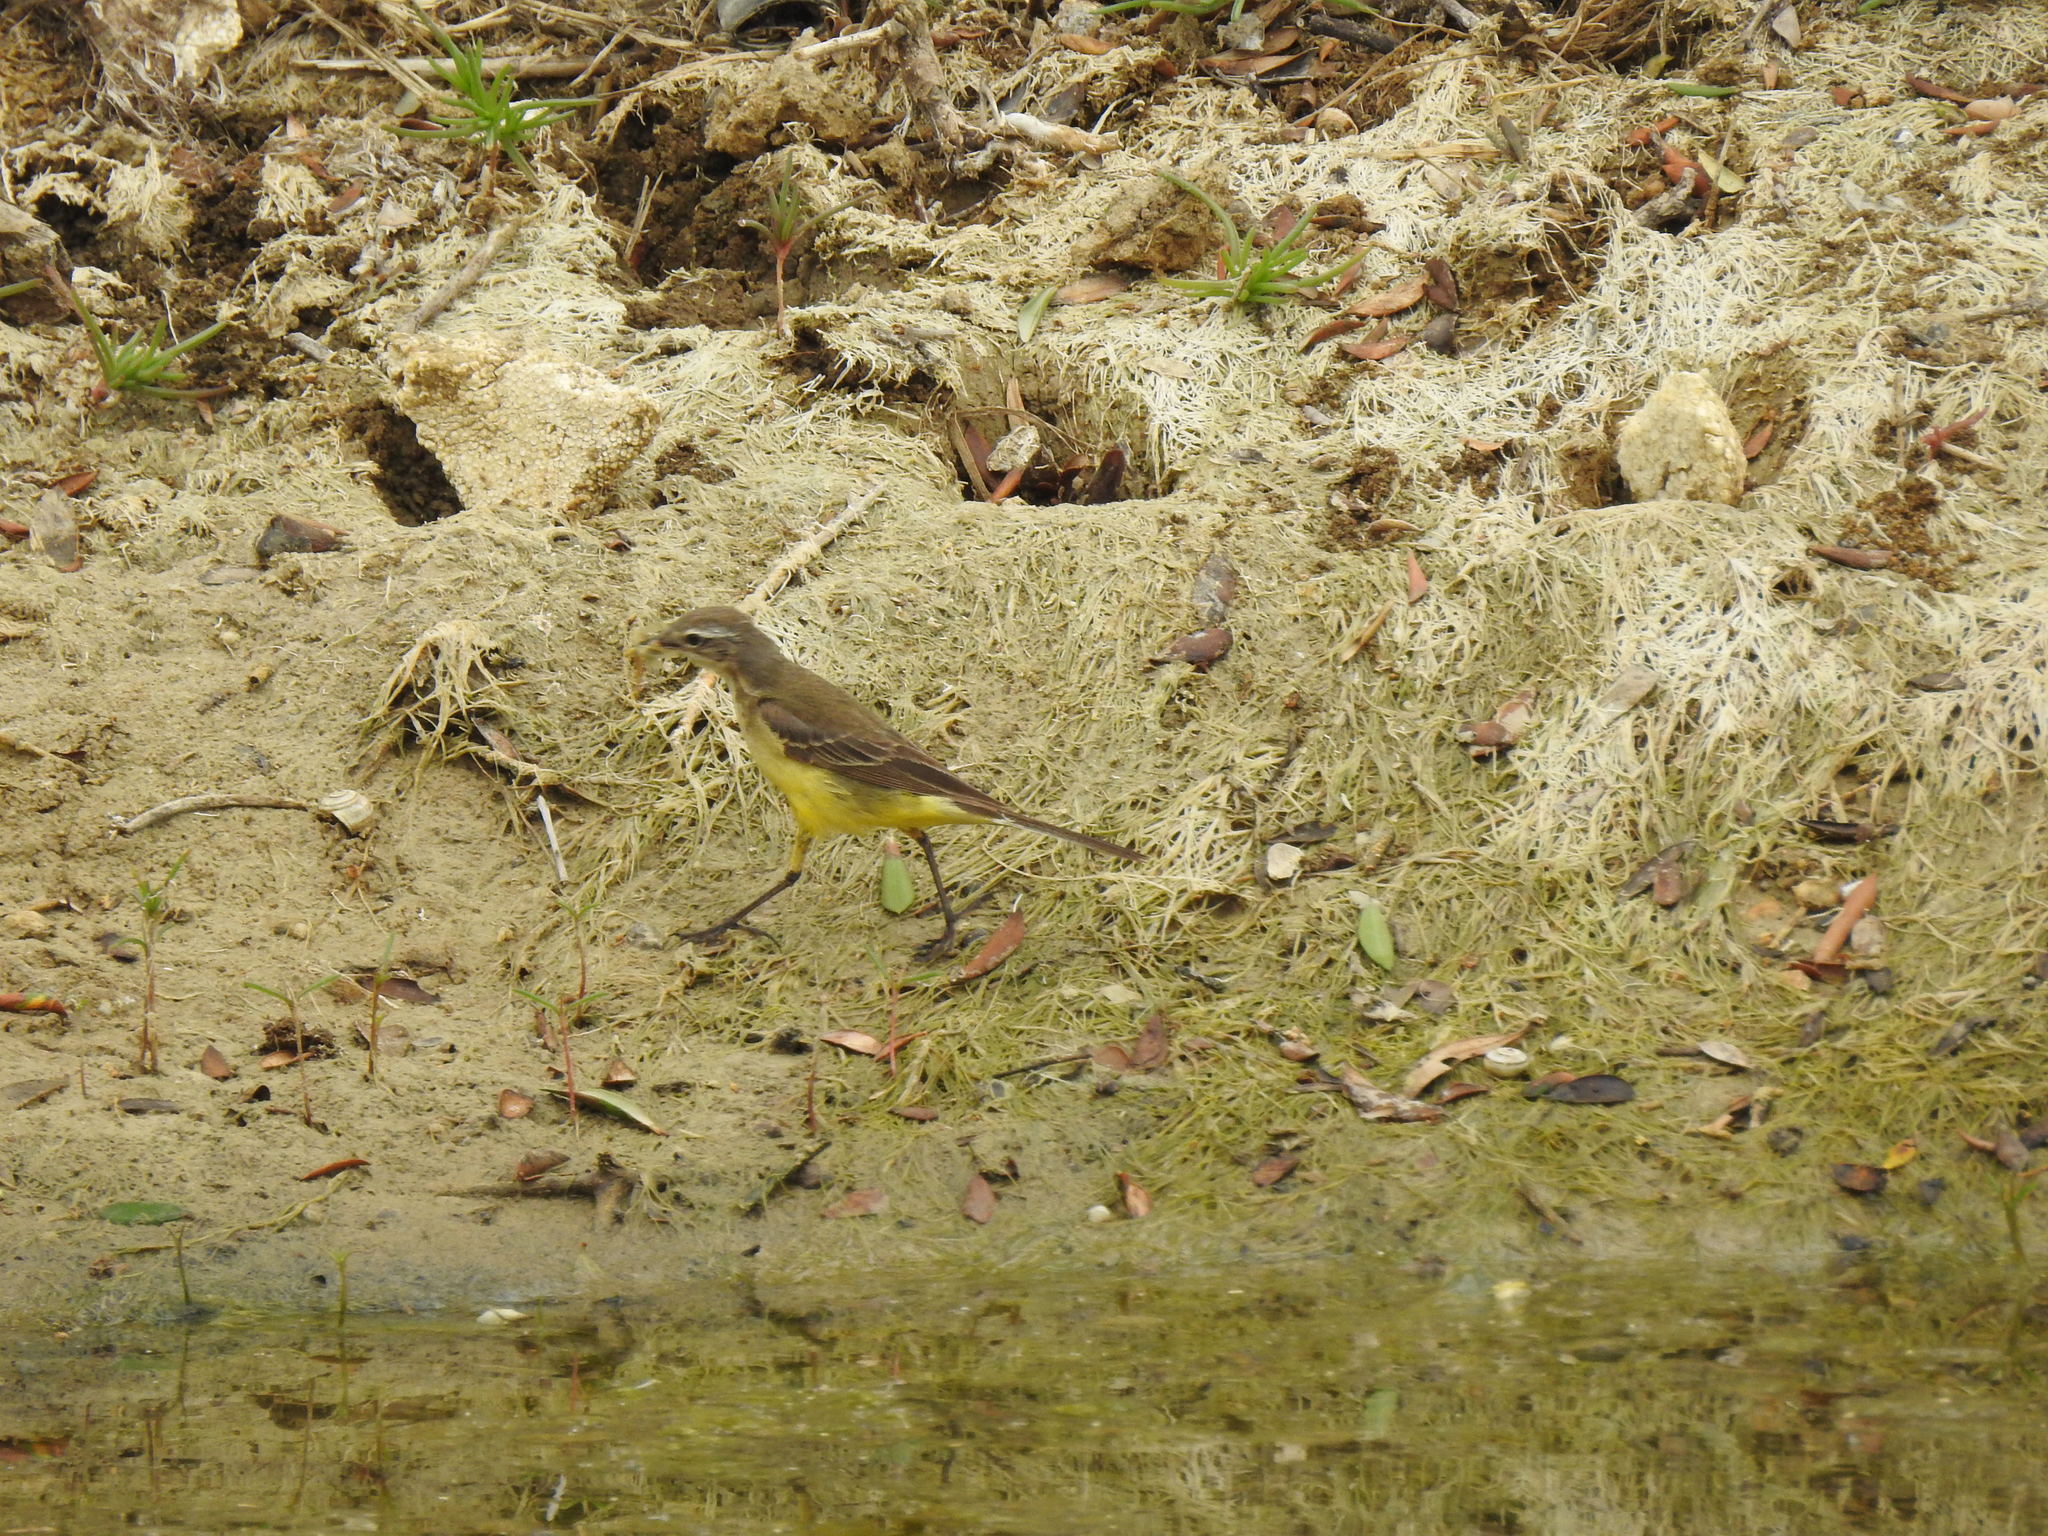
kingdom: Animalia
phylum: Chordata
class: Aves
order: Passeriformes
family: Motacillidae
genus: Motacilla
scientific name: Motacilla flava
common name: Western yellow wagtail
